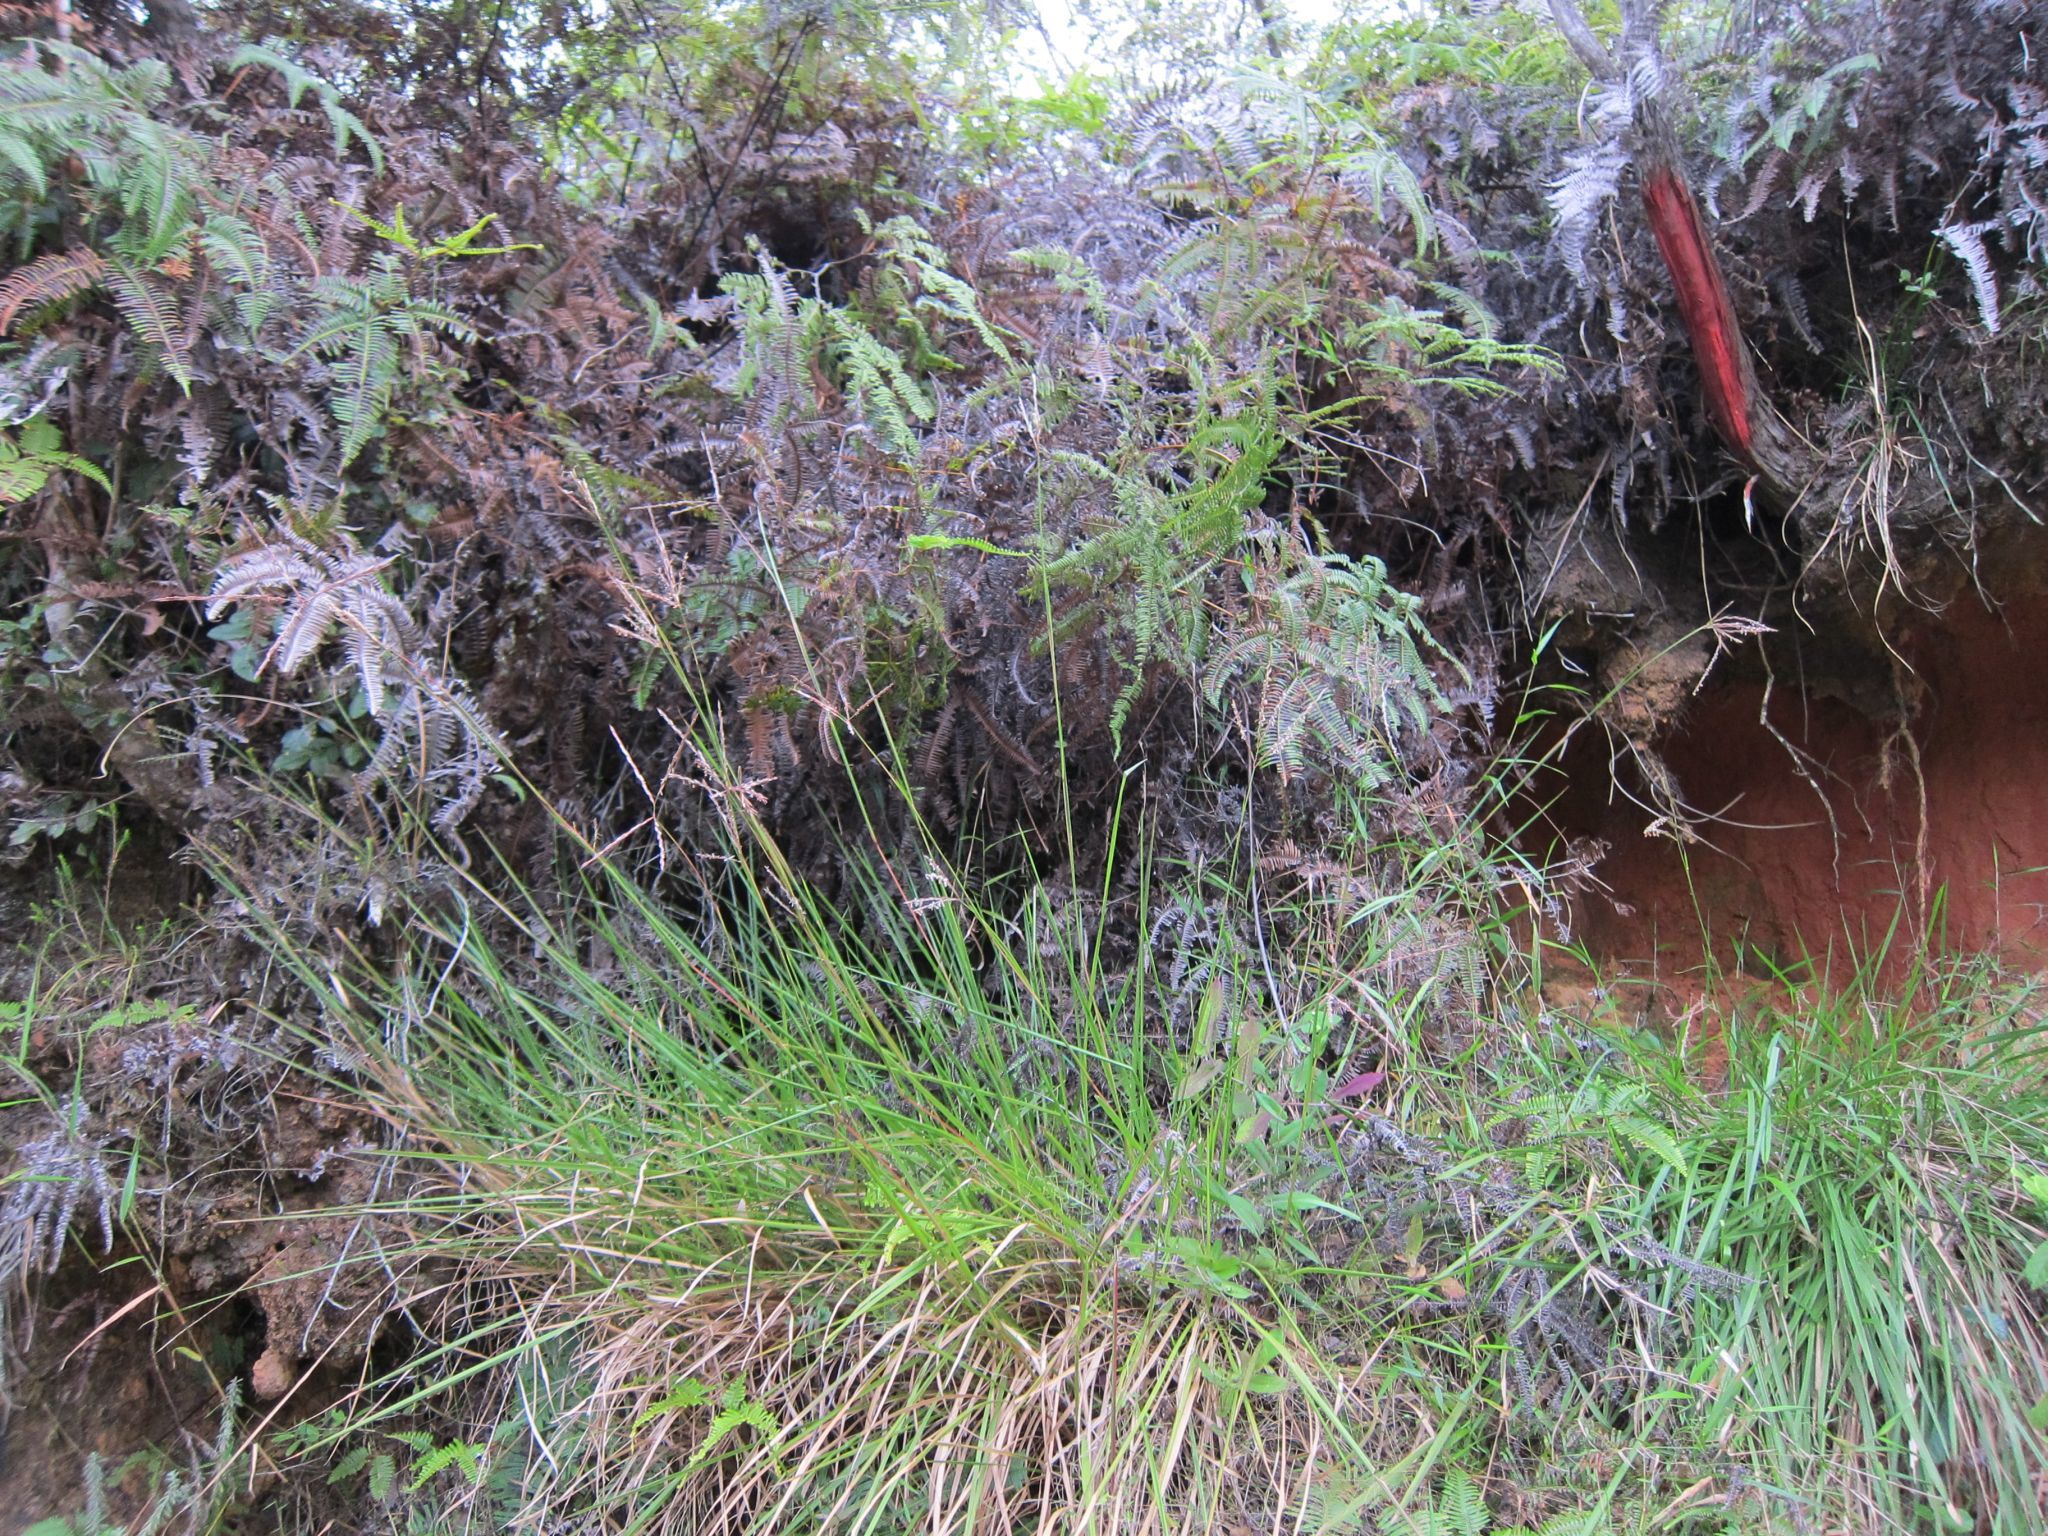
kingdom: Plantae
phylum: Tracheophyta
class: Liliopsida
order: Poales
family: Poaceae
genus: Andropogon
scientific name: Andropogon trichozygus
